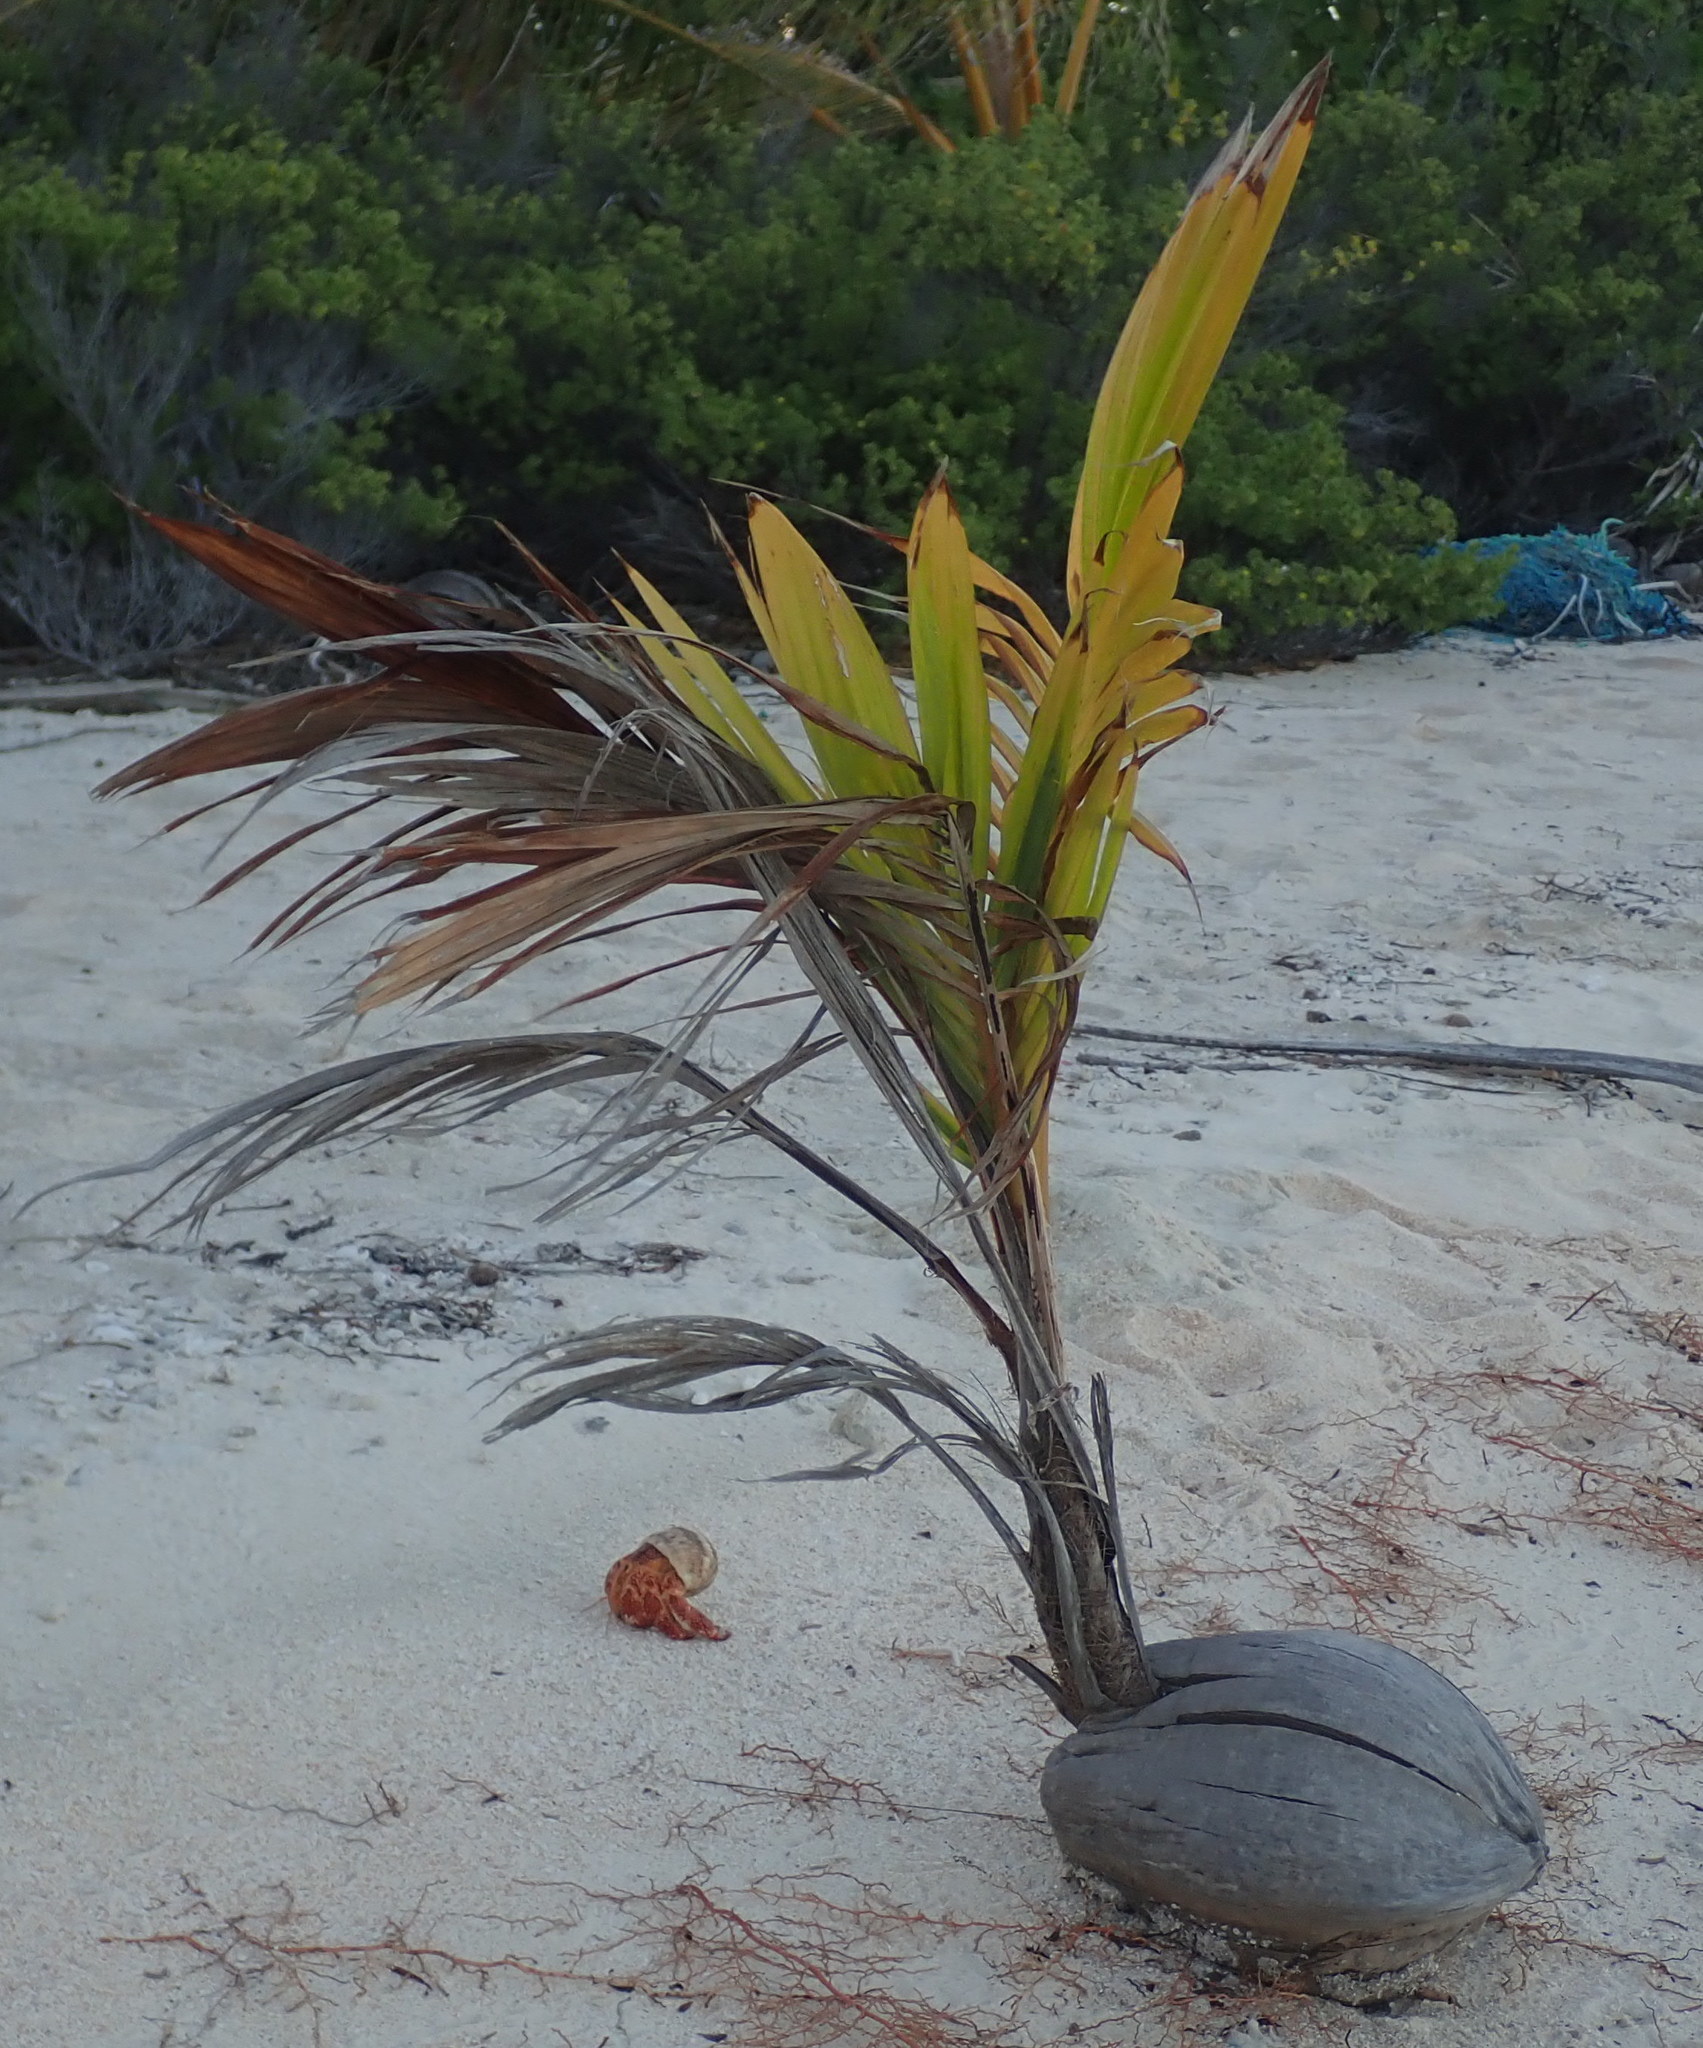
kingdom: Plantae
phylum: Tracheophyta
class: Liliopsida
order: Arecales
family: Arecaceae
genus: Cocos
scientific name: Cocos nucifera
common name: Coconut palm
